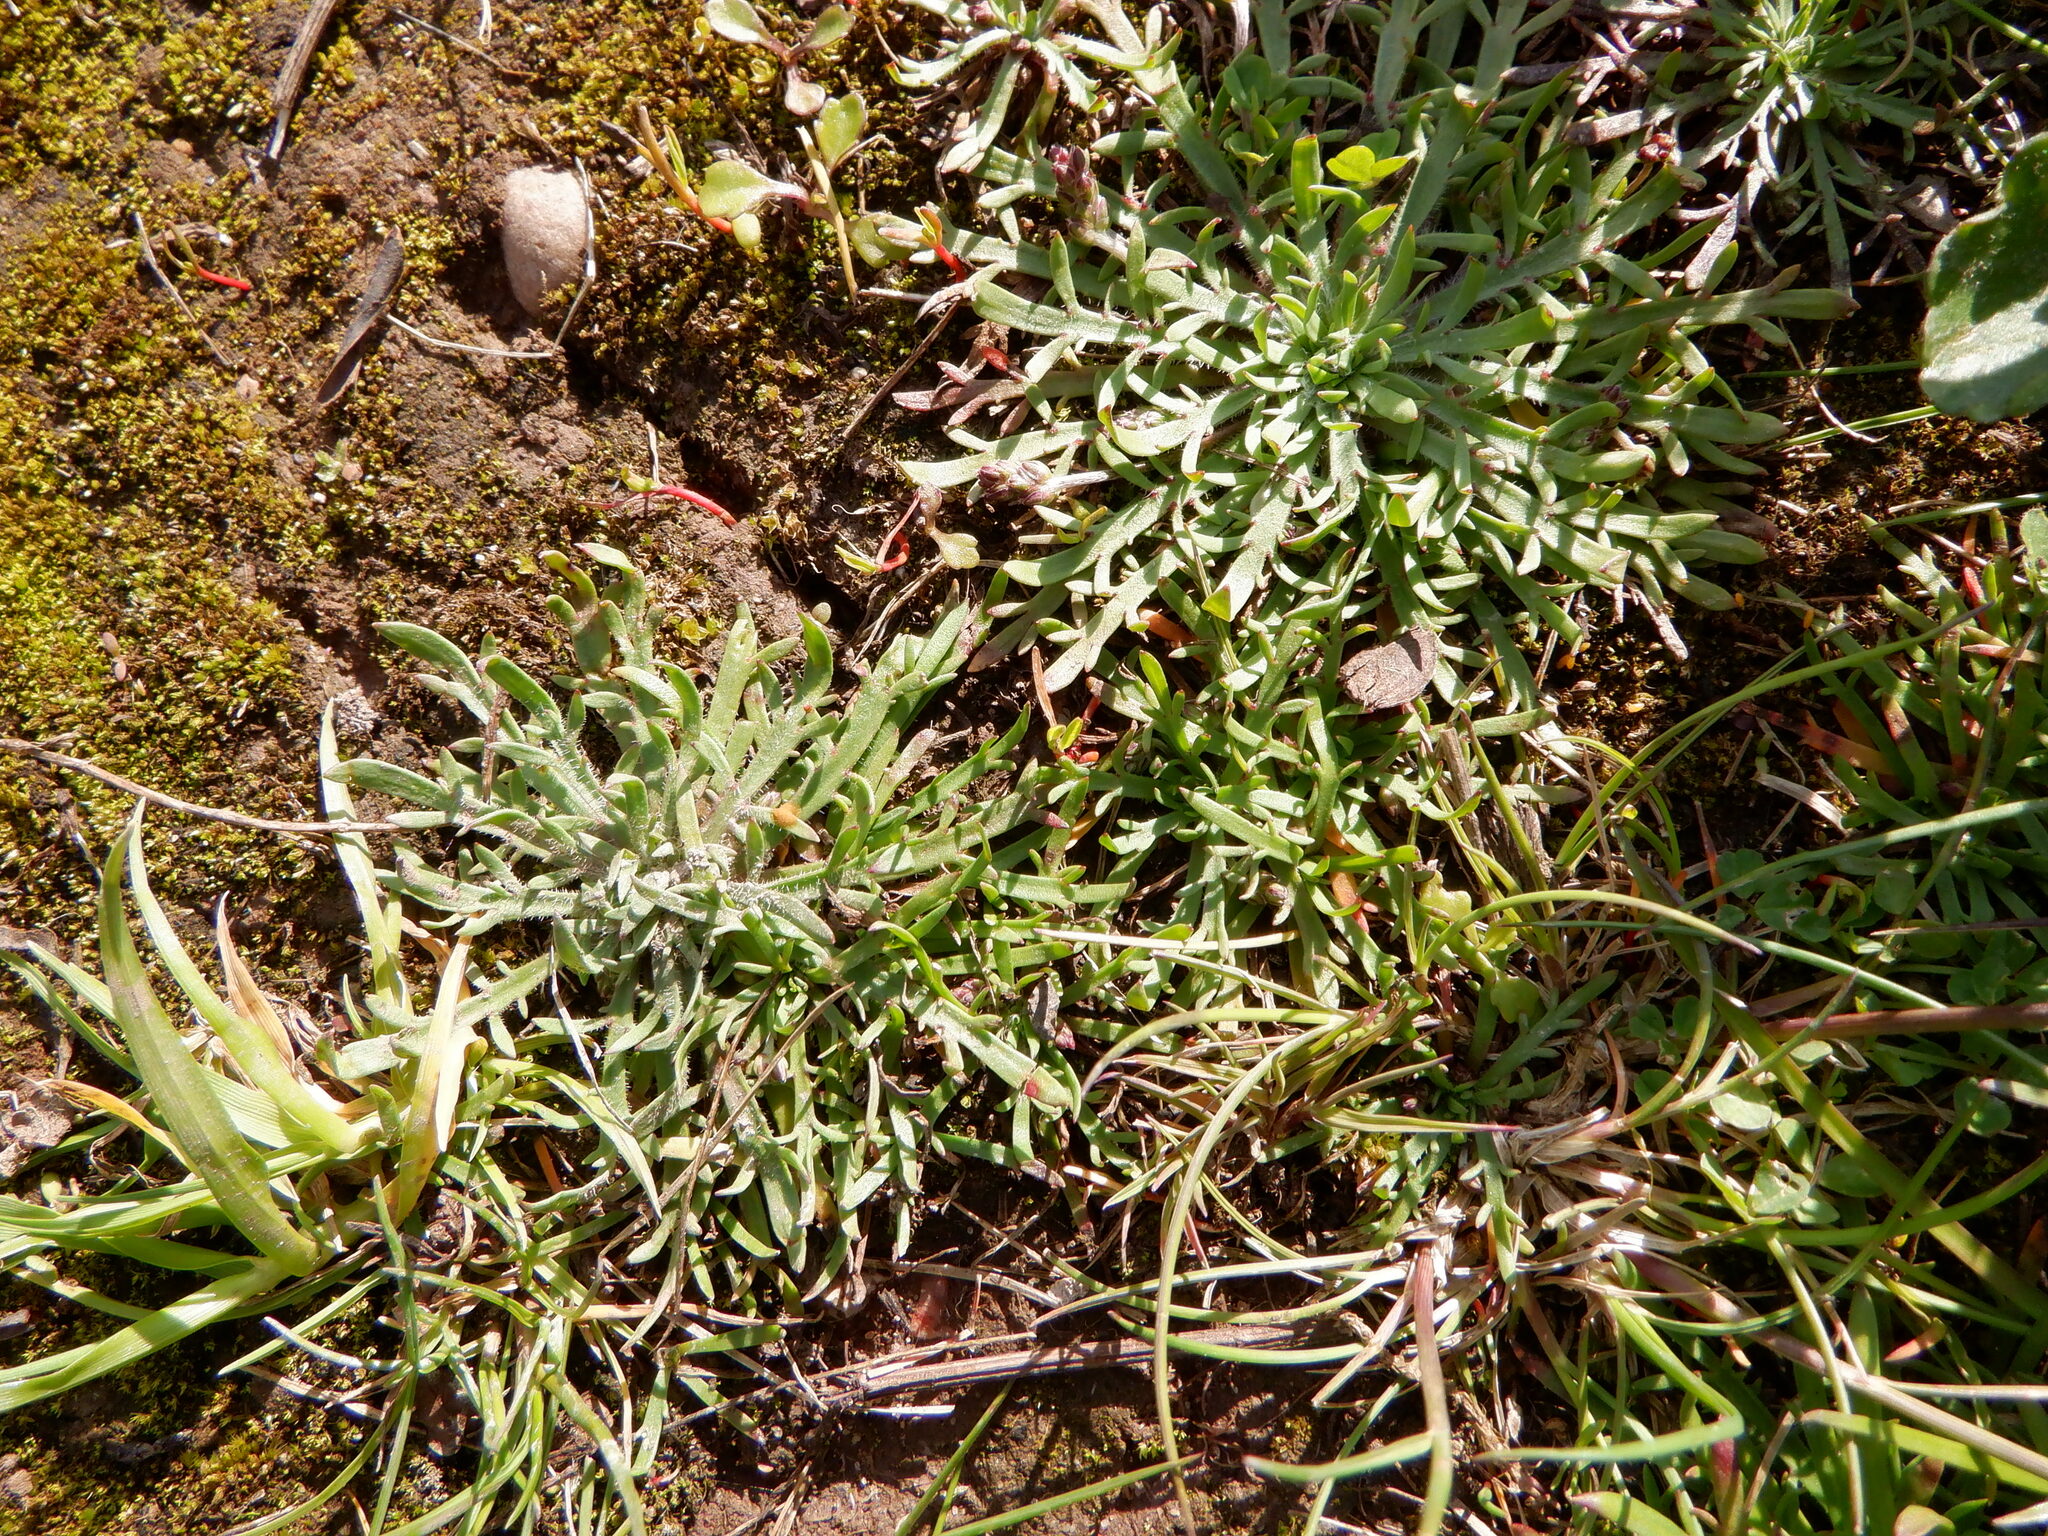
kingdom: Plantae
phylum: Tracheophyta
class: Magnoliopsida
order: Lamiales
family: Plantaginaceae
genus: Plantago
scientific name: Plantago coronopus
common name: Buck's-horn plantain
